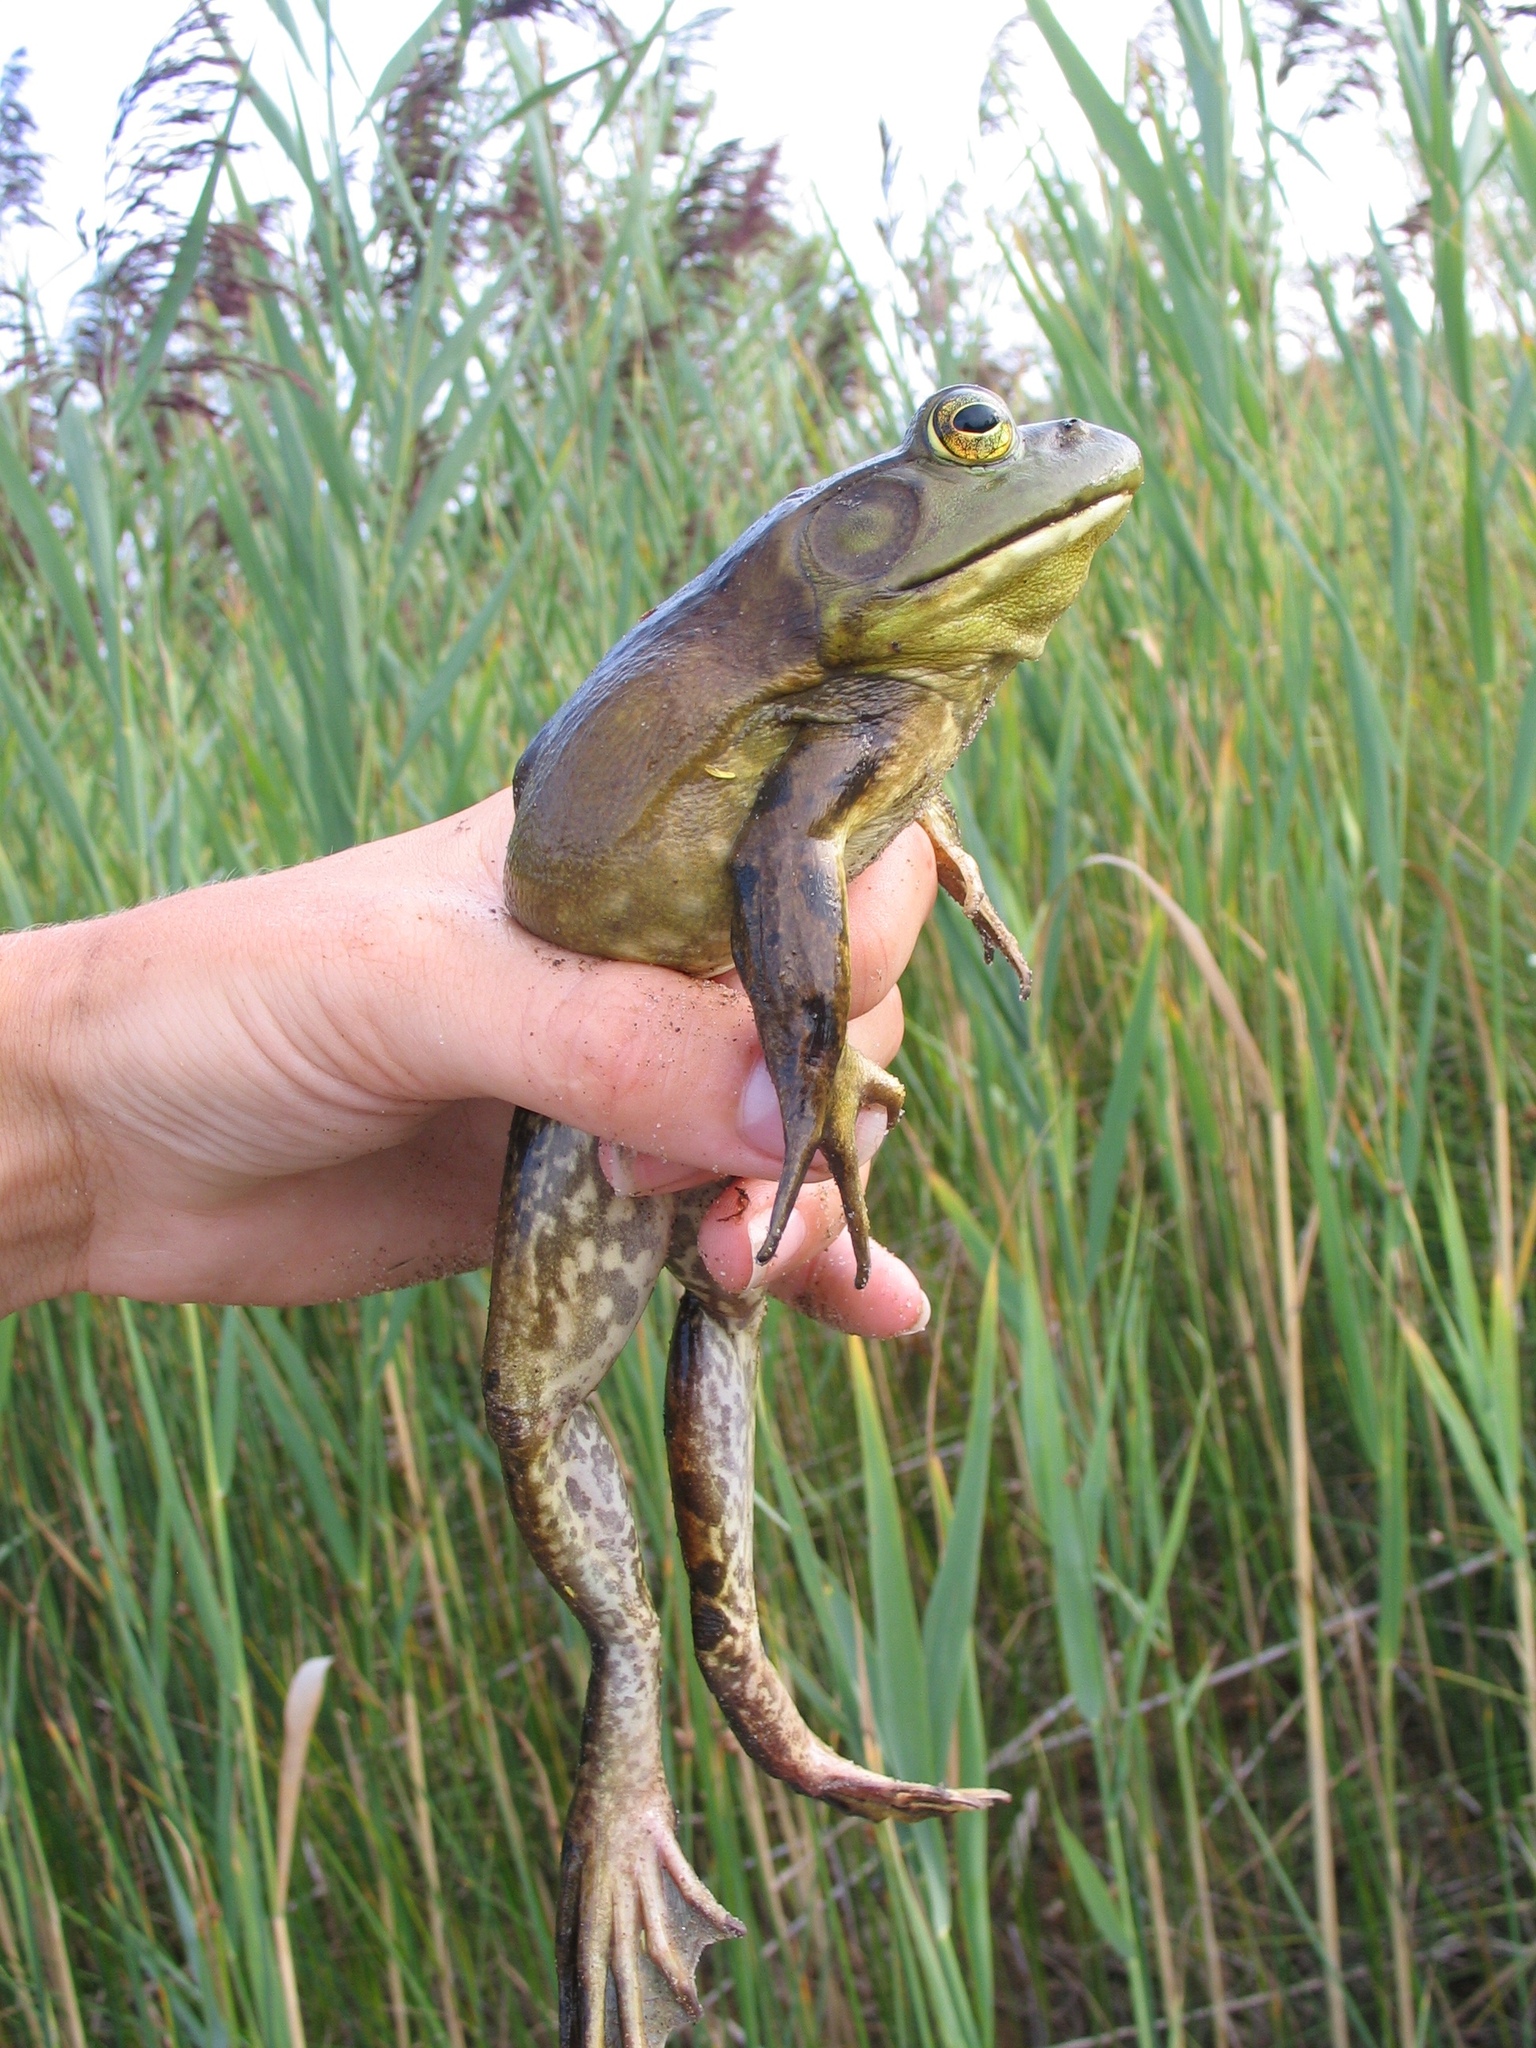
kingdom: Animalia
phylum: Chordata
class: Amphibia
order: Anura
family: Ranidae
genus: Lithobates
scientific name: Lithobates catesbeianus
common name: American bullfrog
